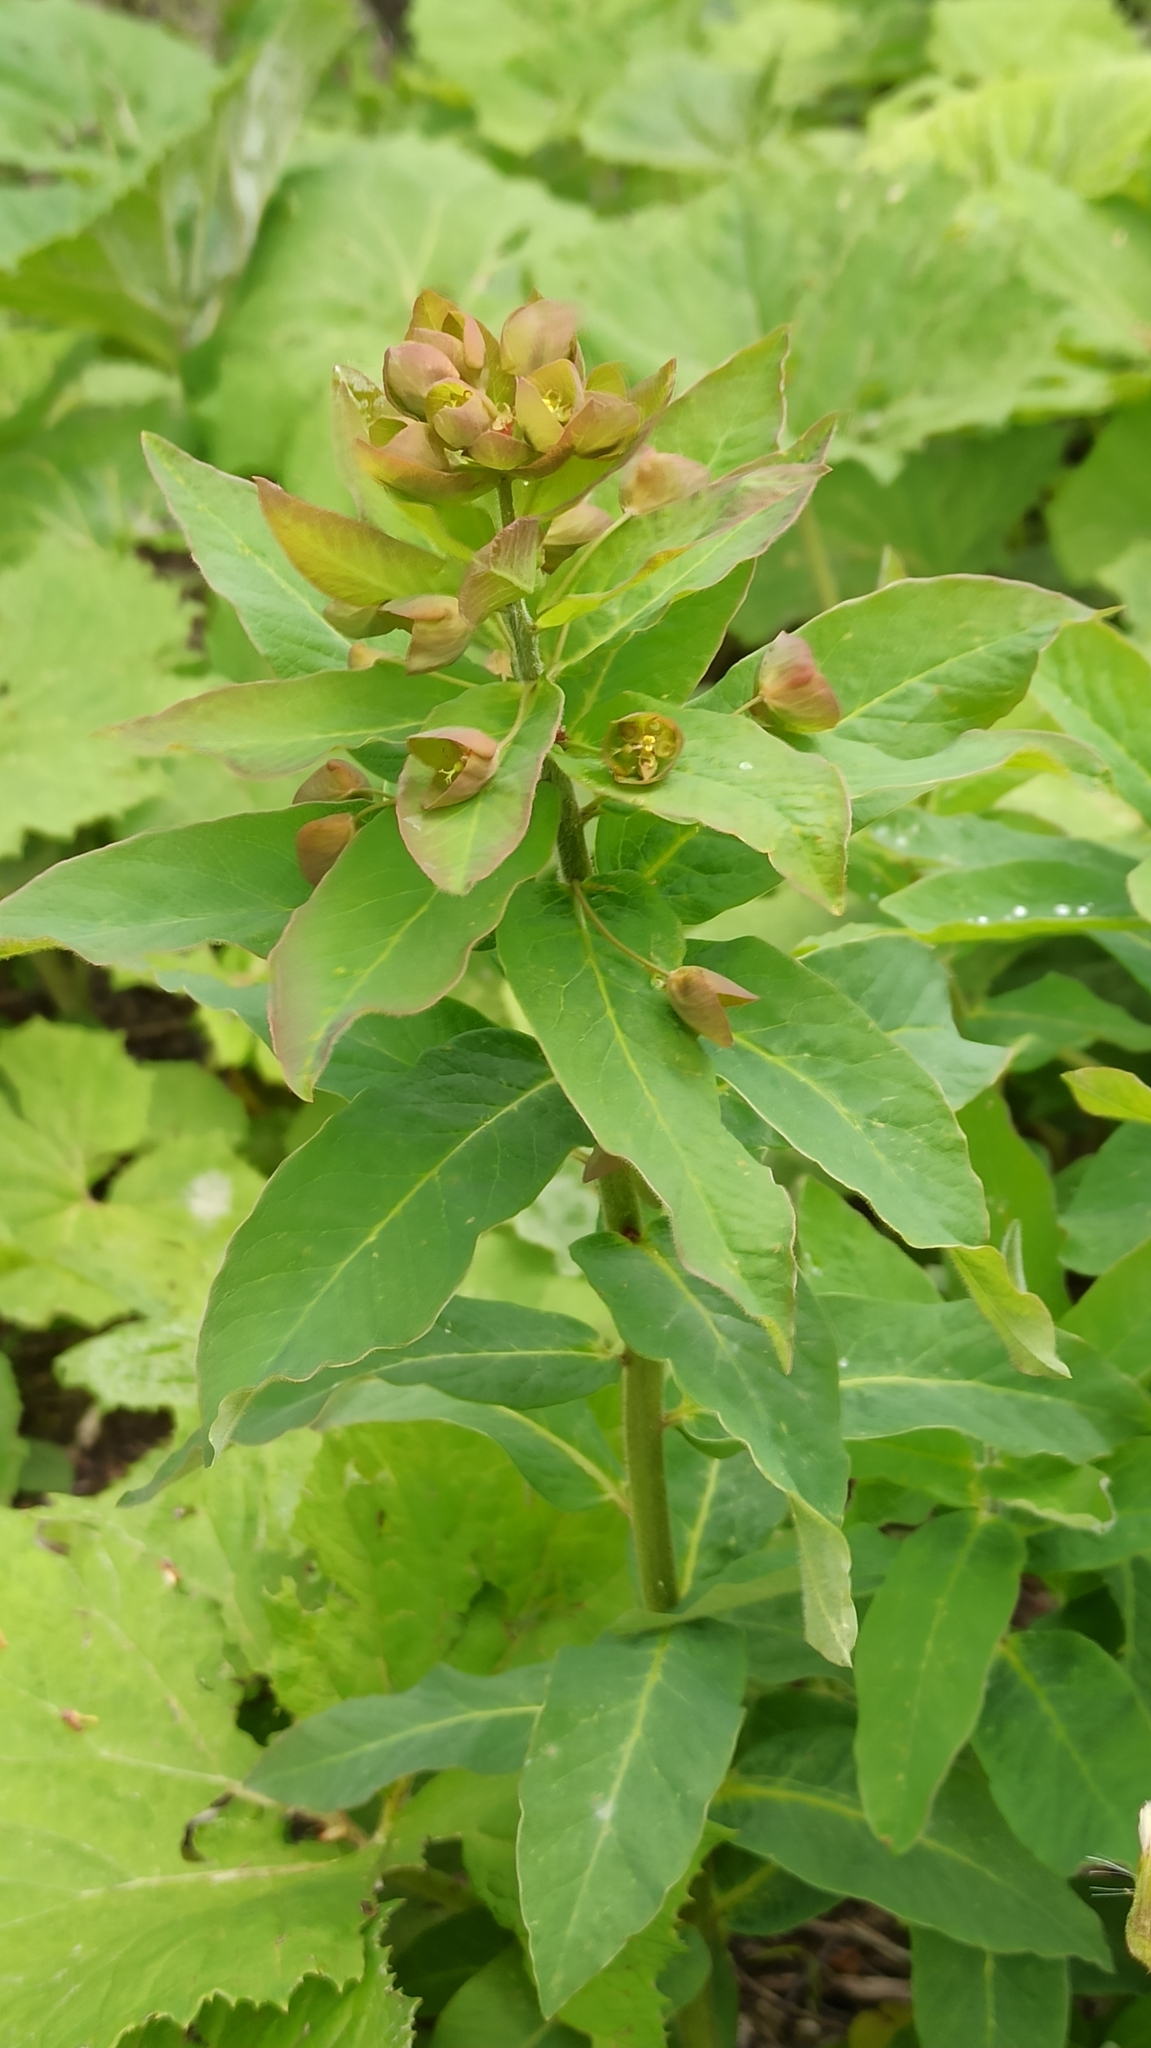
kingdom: Plantae
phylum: Tracheophyta
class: Magnoliopsida
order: Malpighiales
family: Euphorbiaceae
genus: Euphorbia
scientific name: Euphorbia oblongifolia
